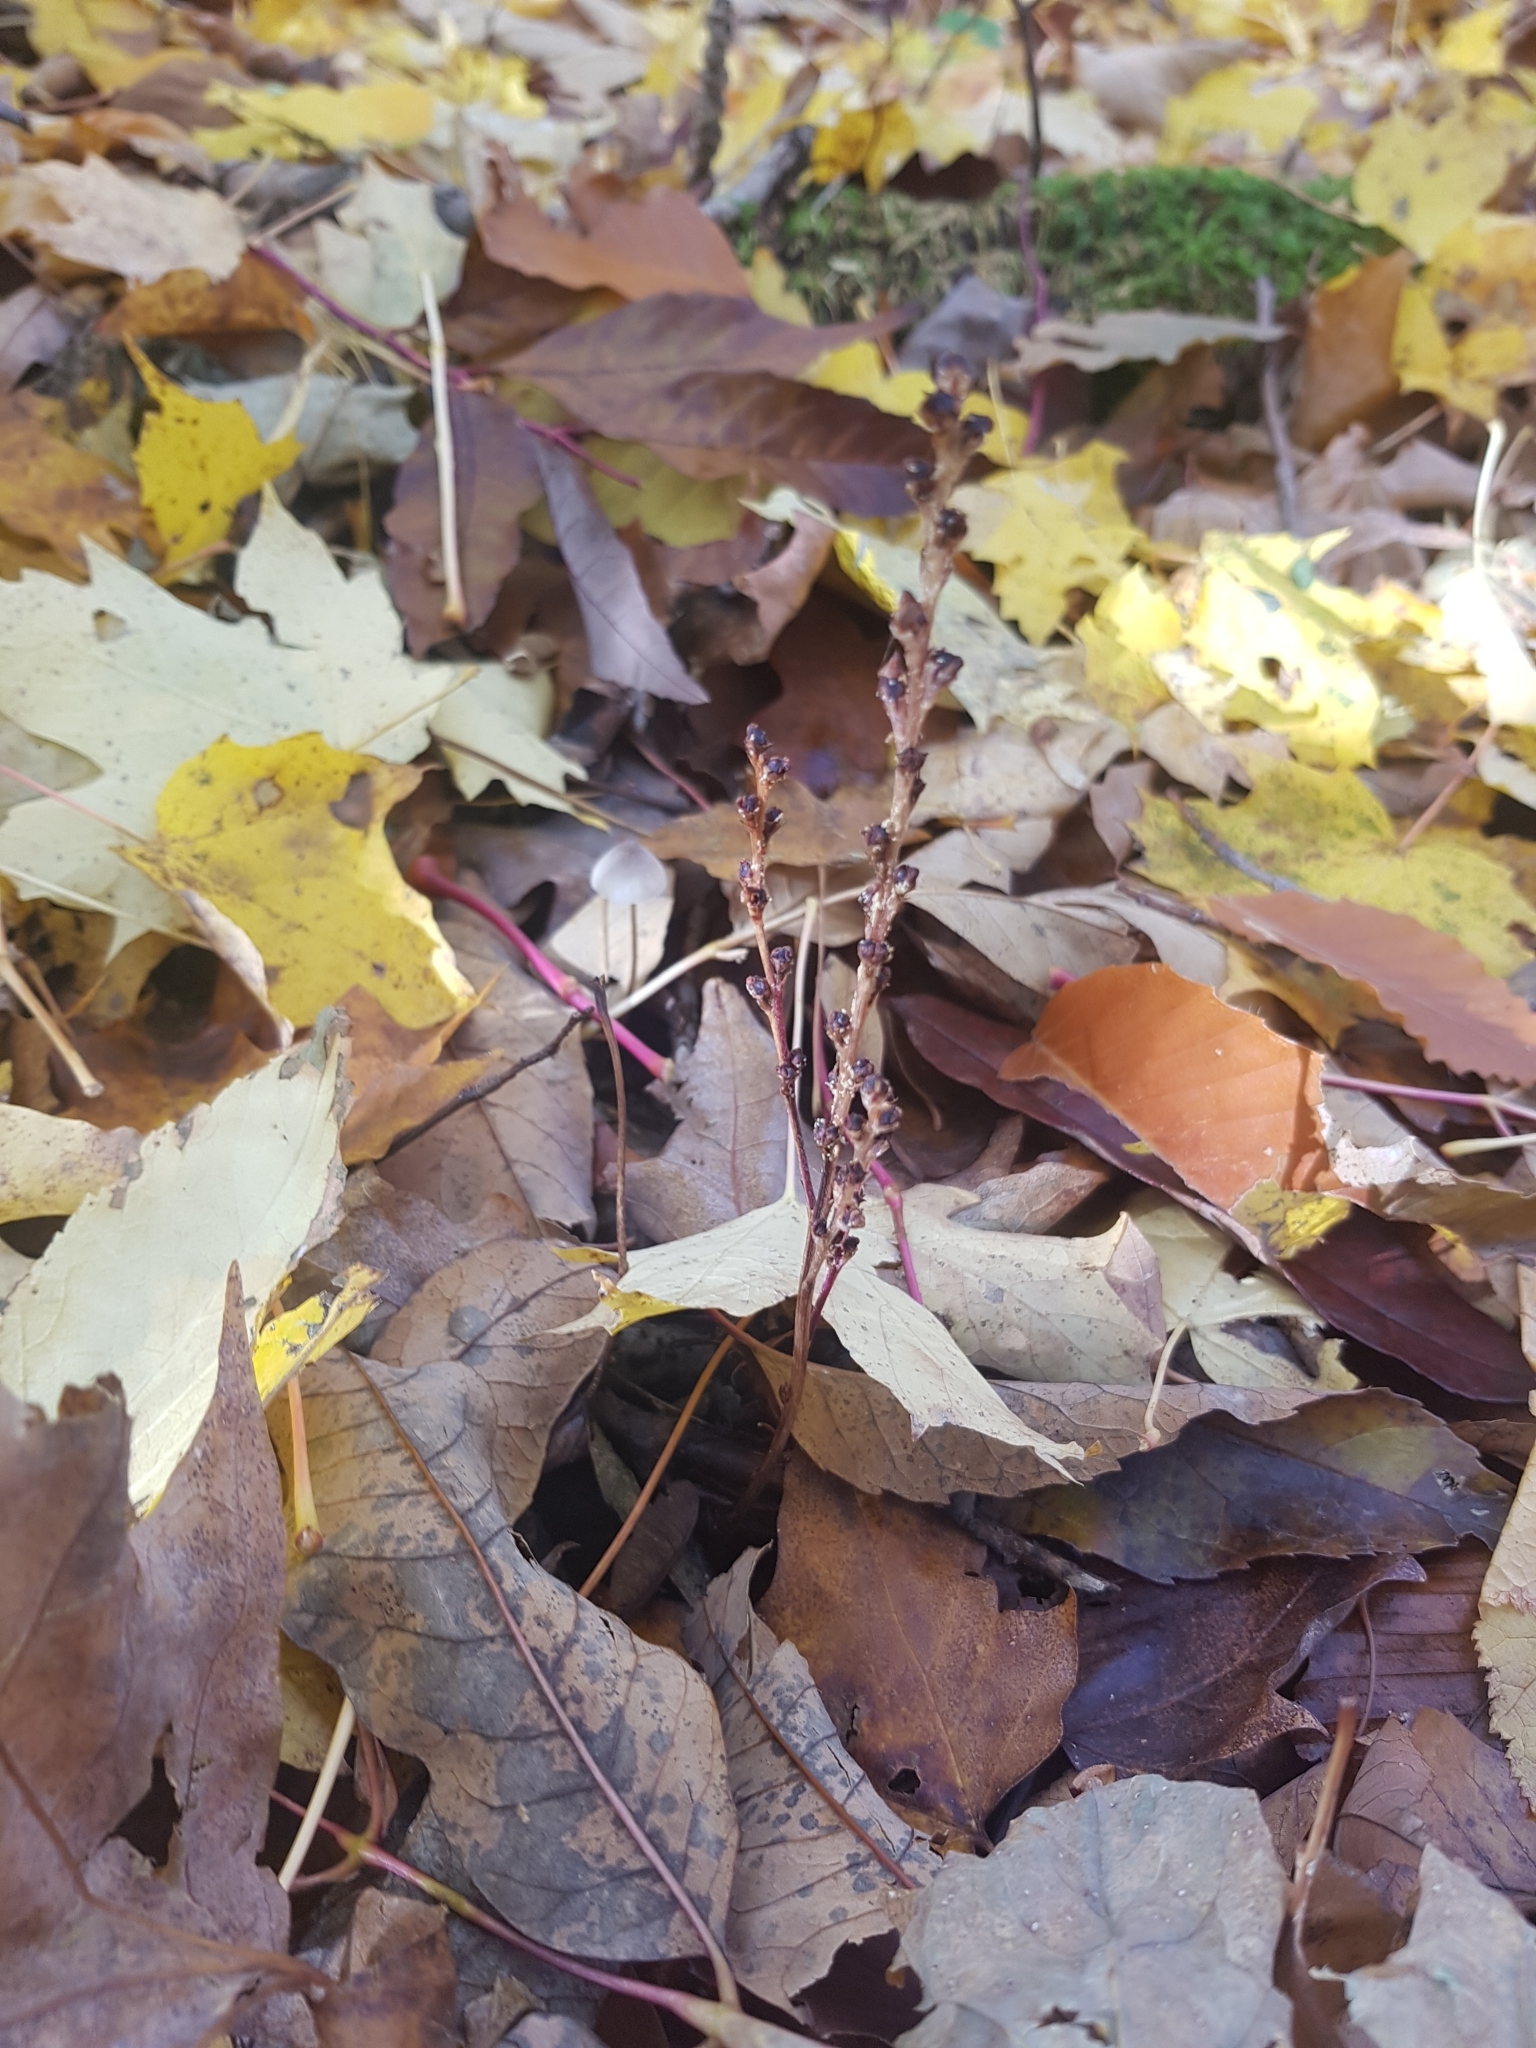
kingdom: Plantae
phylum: Tracheophyta
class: Magnoliopsida
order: Lamiales
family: Orobanchaceae
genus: Epifagus
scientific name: Epifagus virginiana
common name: Beechdrops
